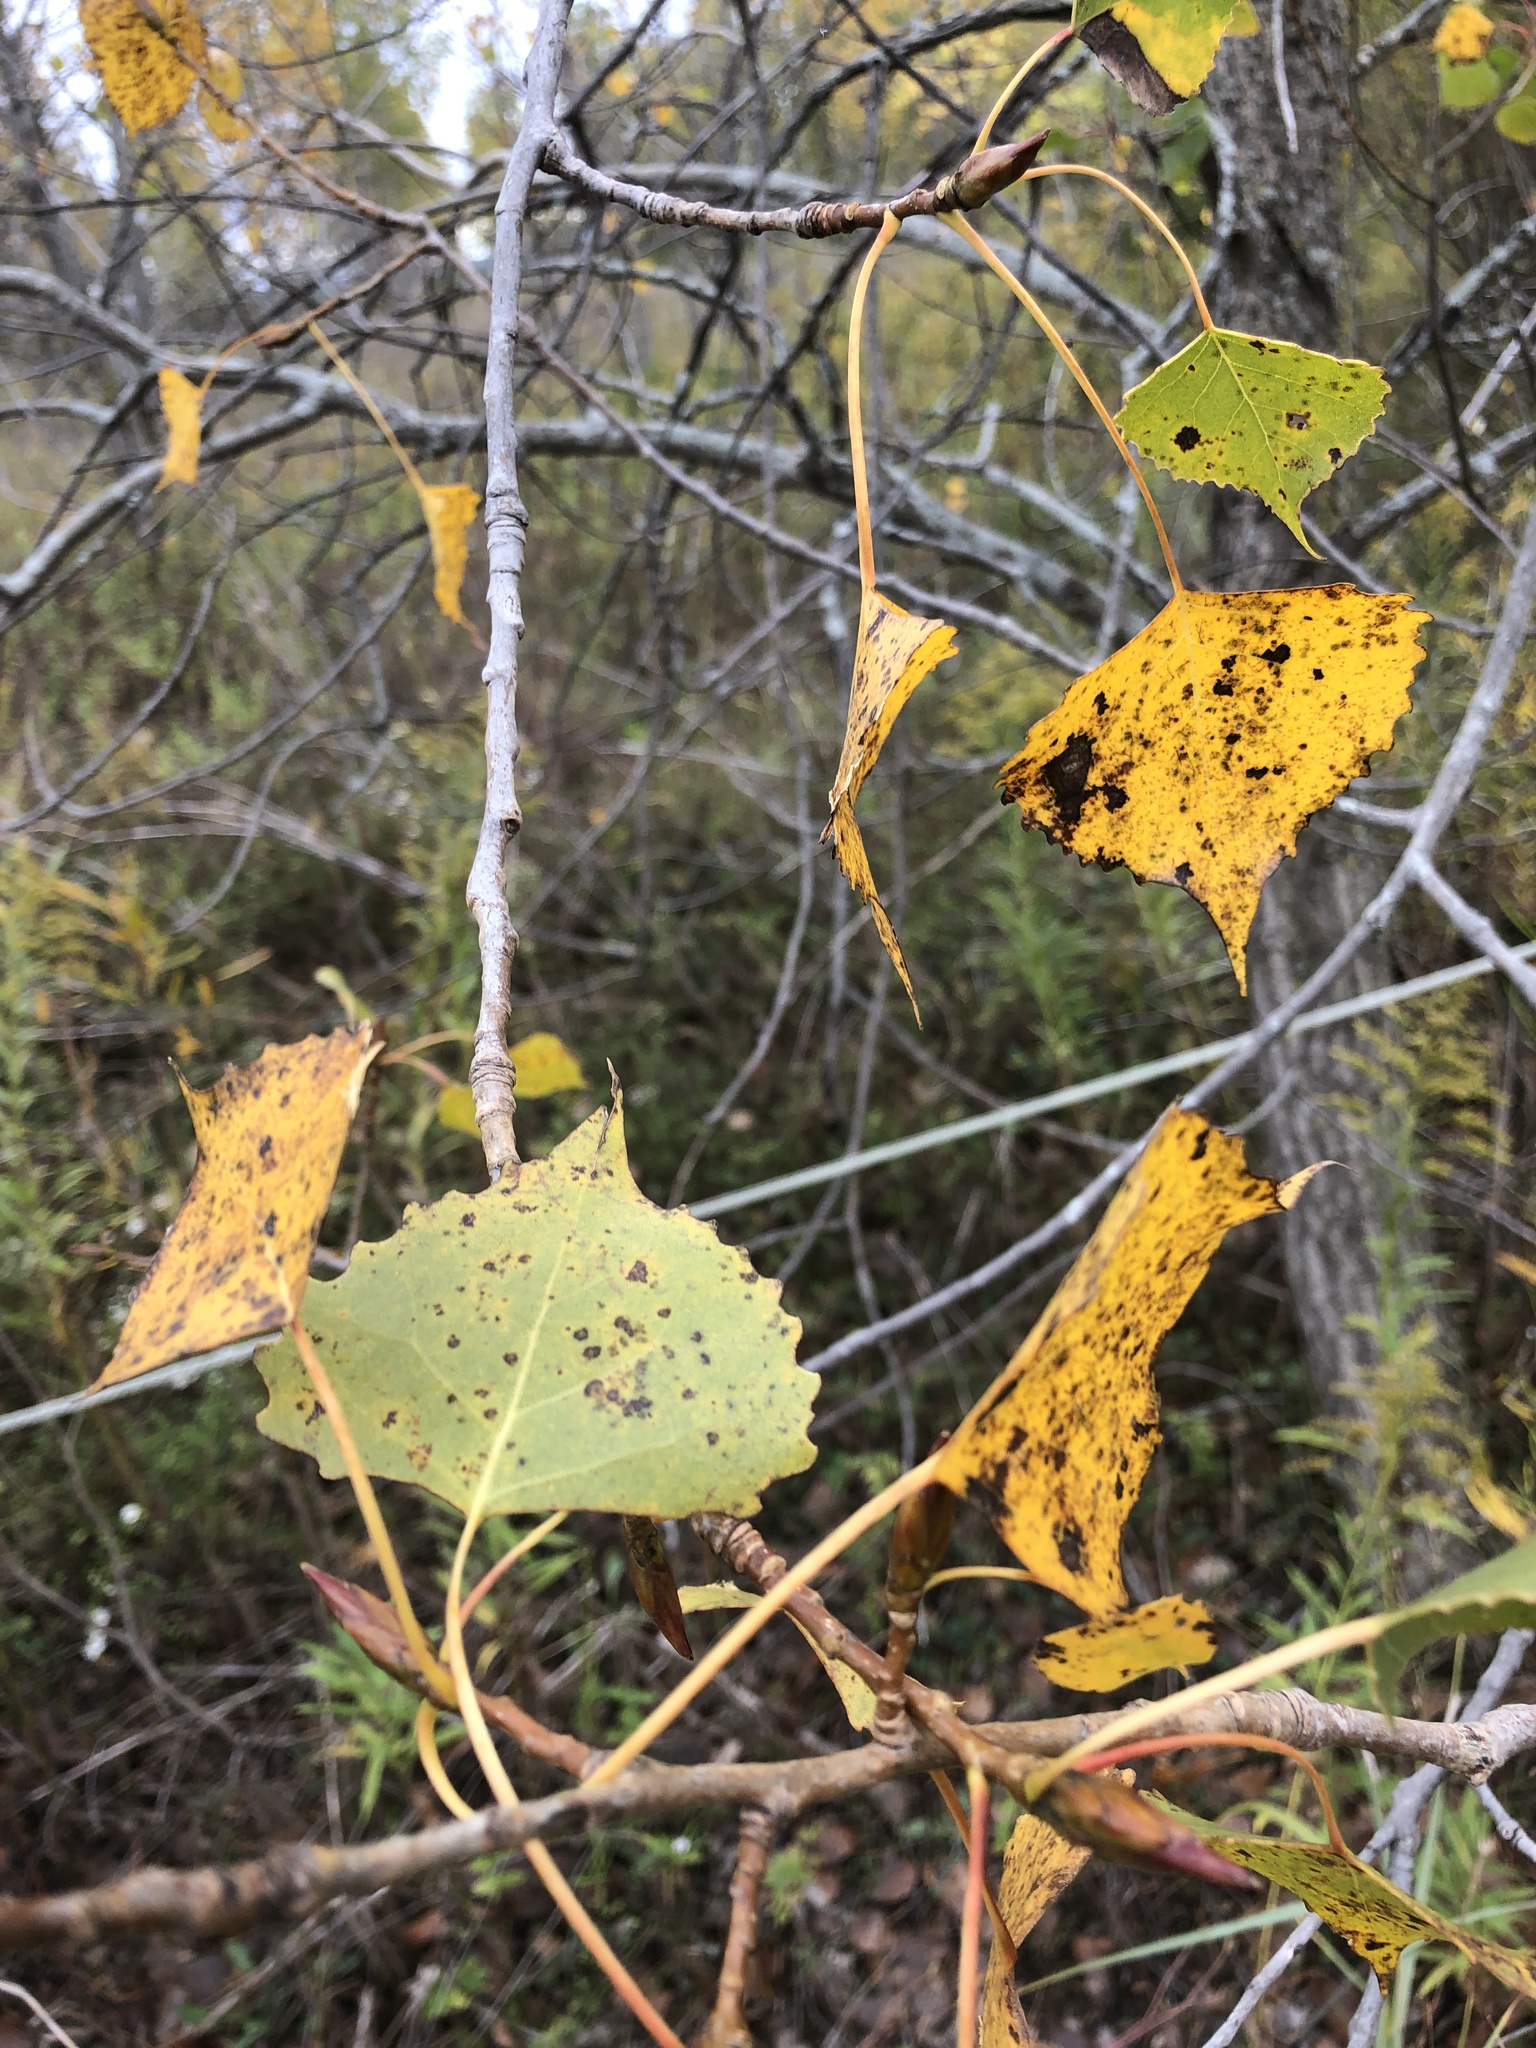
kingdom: Plantae
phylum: Tracheophyta
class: Magnoliopsida
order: Malpighiales
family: Salicaceae
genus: Populus
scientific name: Populus deltoides
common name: Eastern cottonwood
